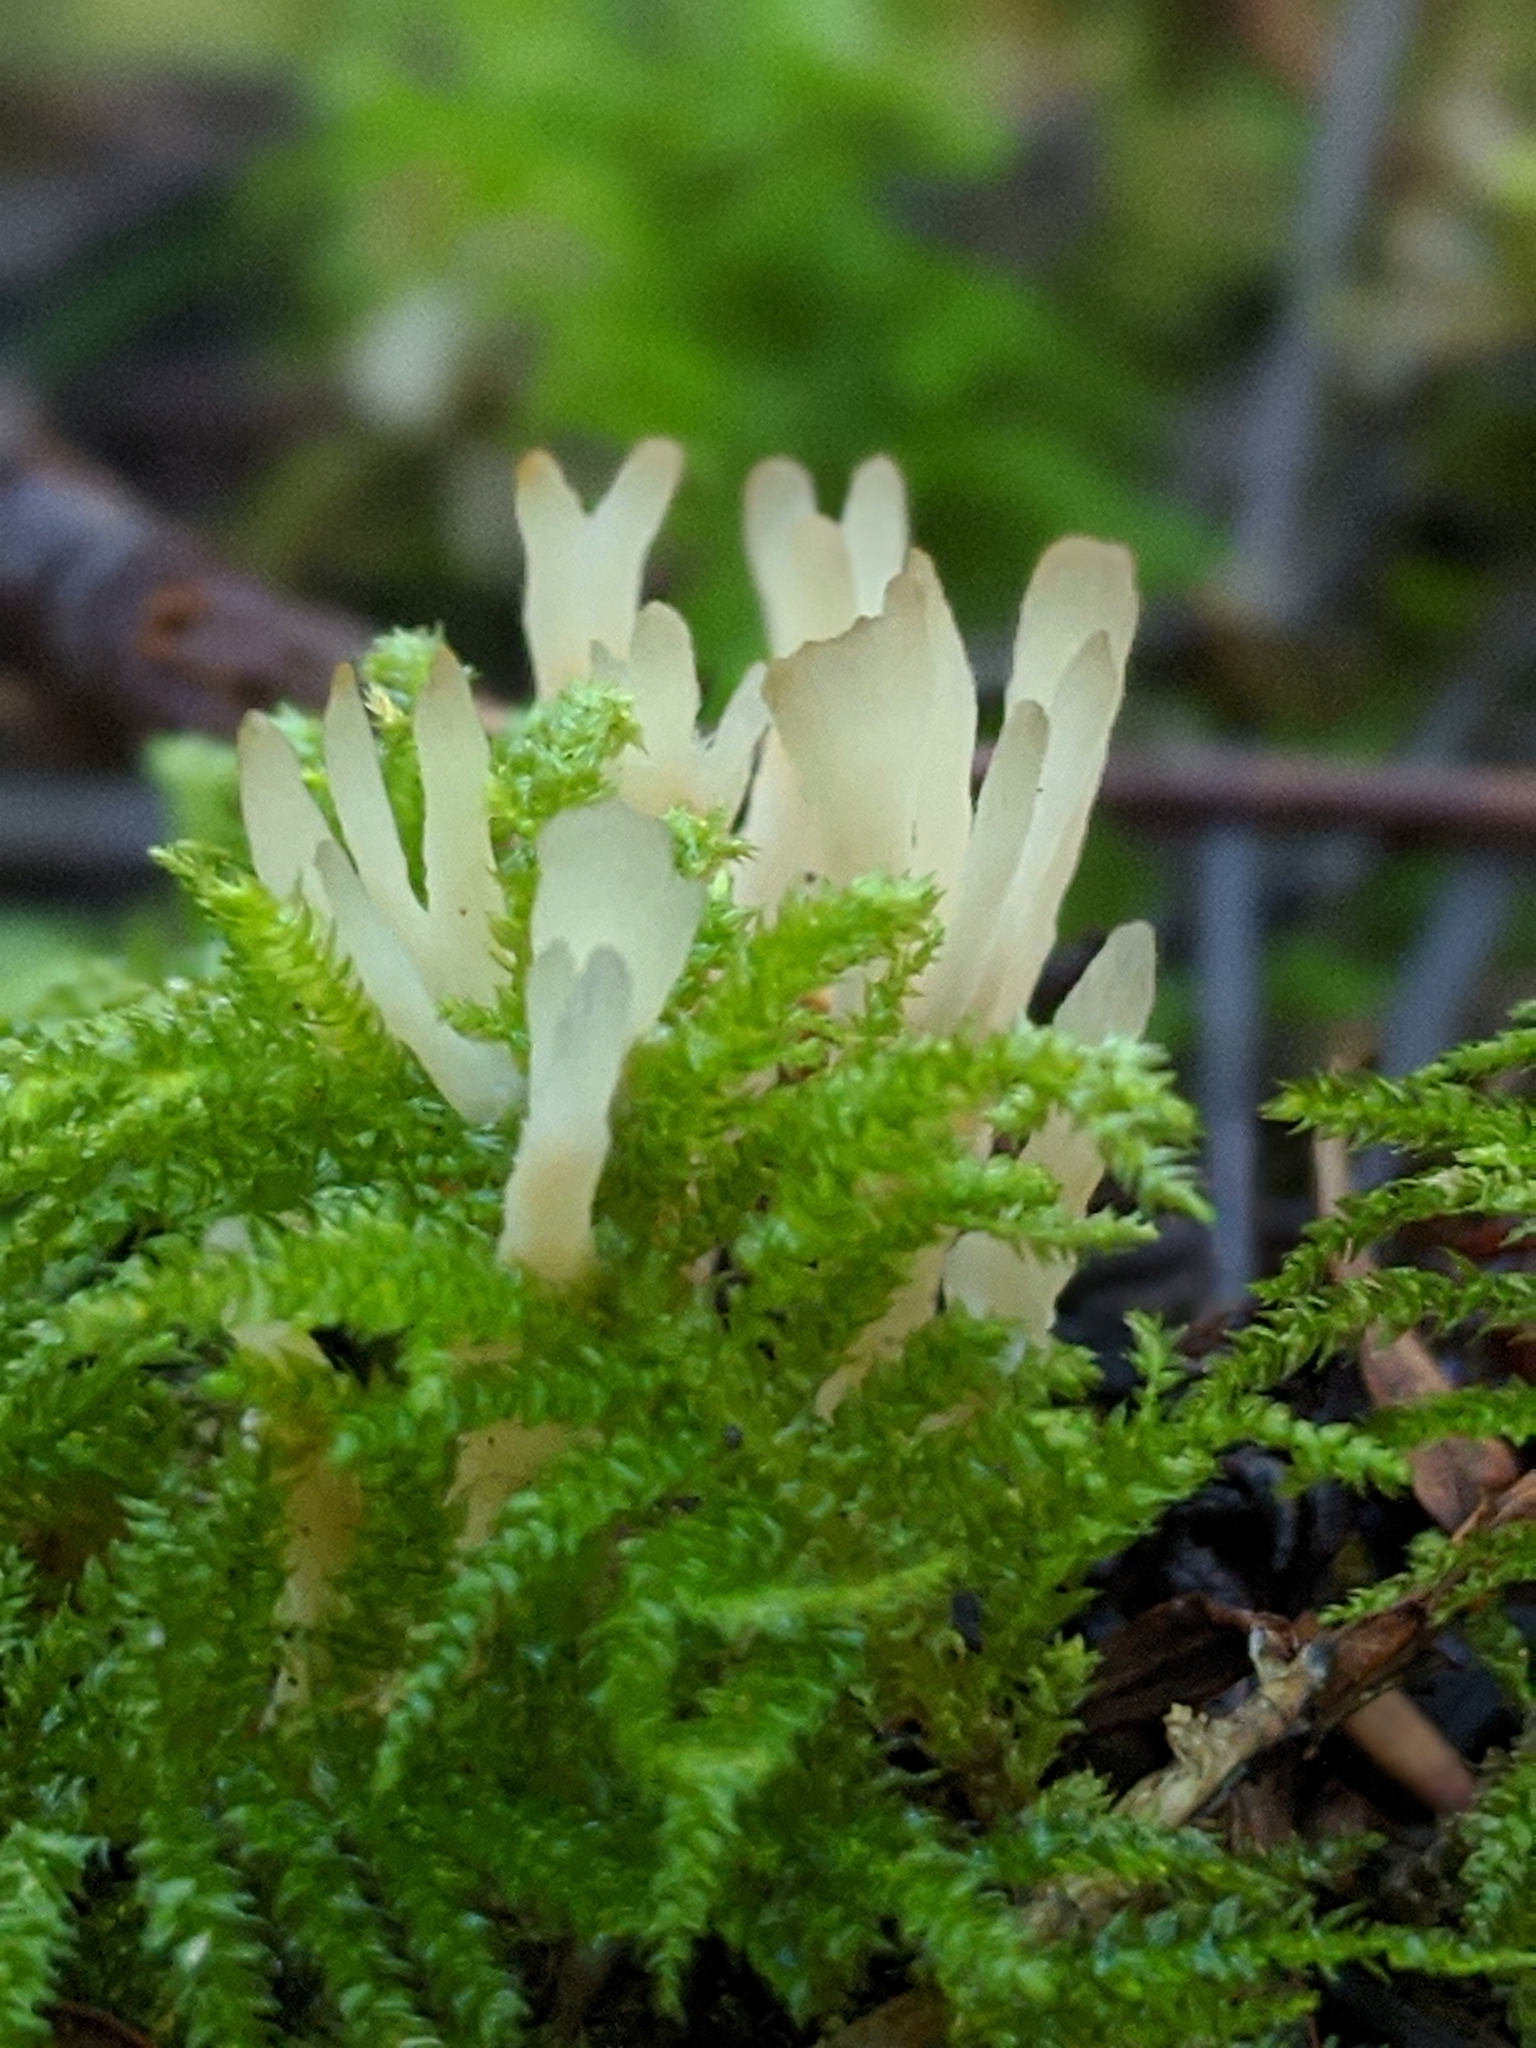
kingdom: Fungi
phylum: Basidiomycota
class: Agaricomycetes
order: Tremellodendropsidales
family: Tremellodendropsidaceae
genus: Tremellodendropsis
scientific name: Tremellodendropsis tuberosa
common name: Ashen coral
